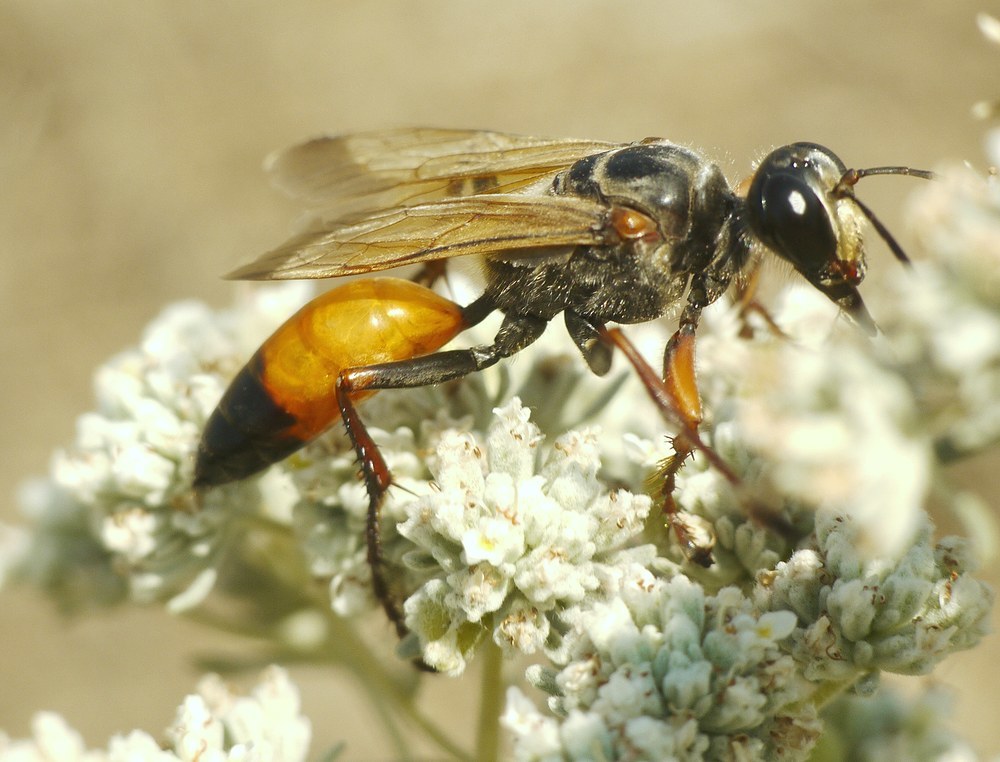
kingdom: Animalia
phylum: Arthropoda
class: Insecta
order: Hymenoptera
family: Sphecidae
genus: Sphex
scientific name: Sphex flavipennis
